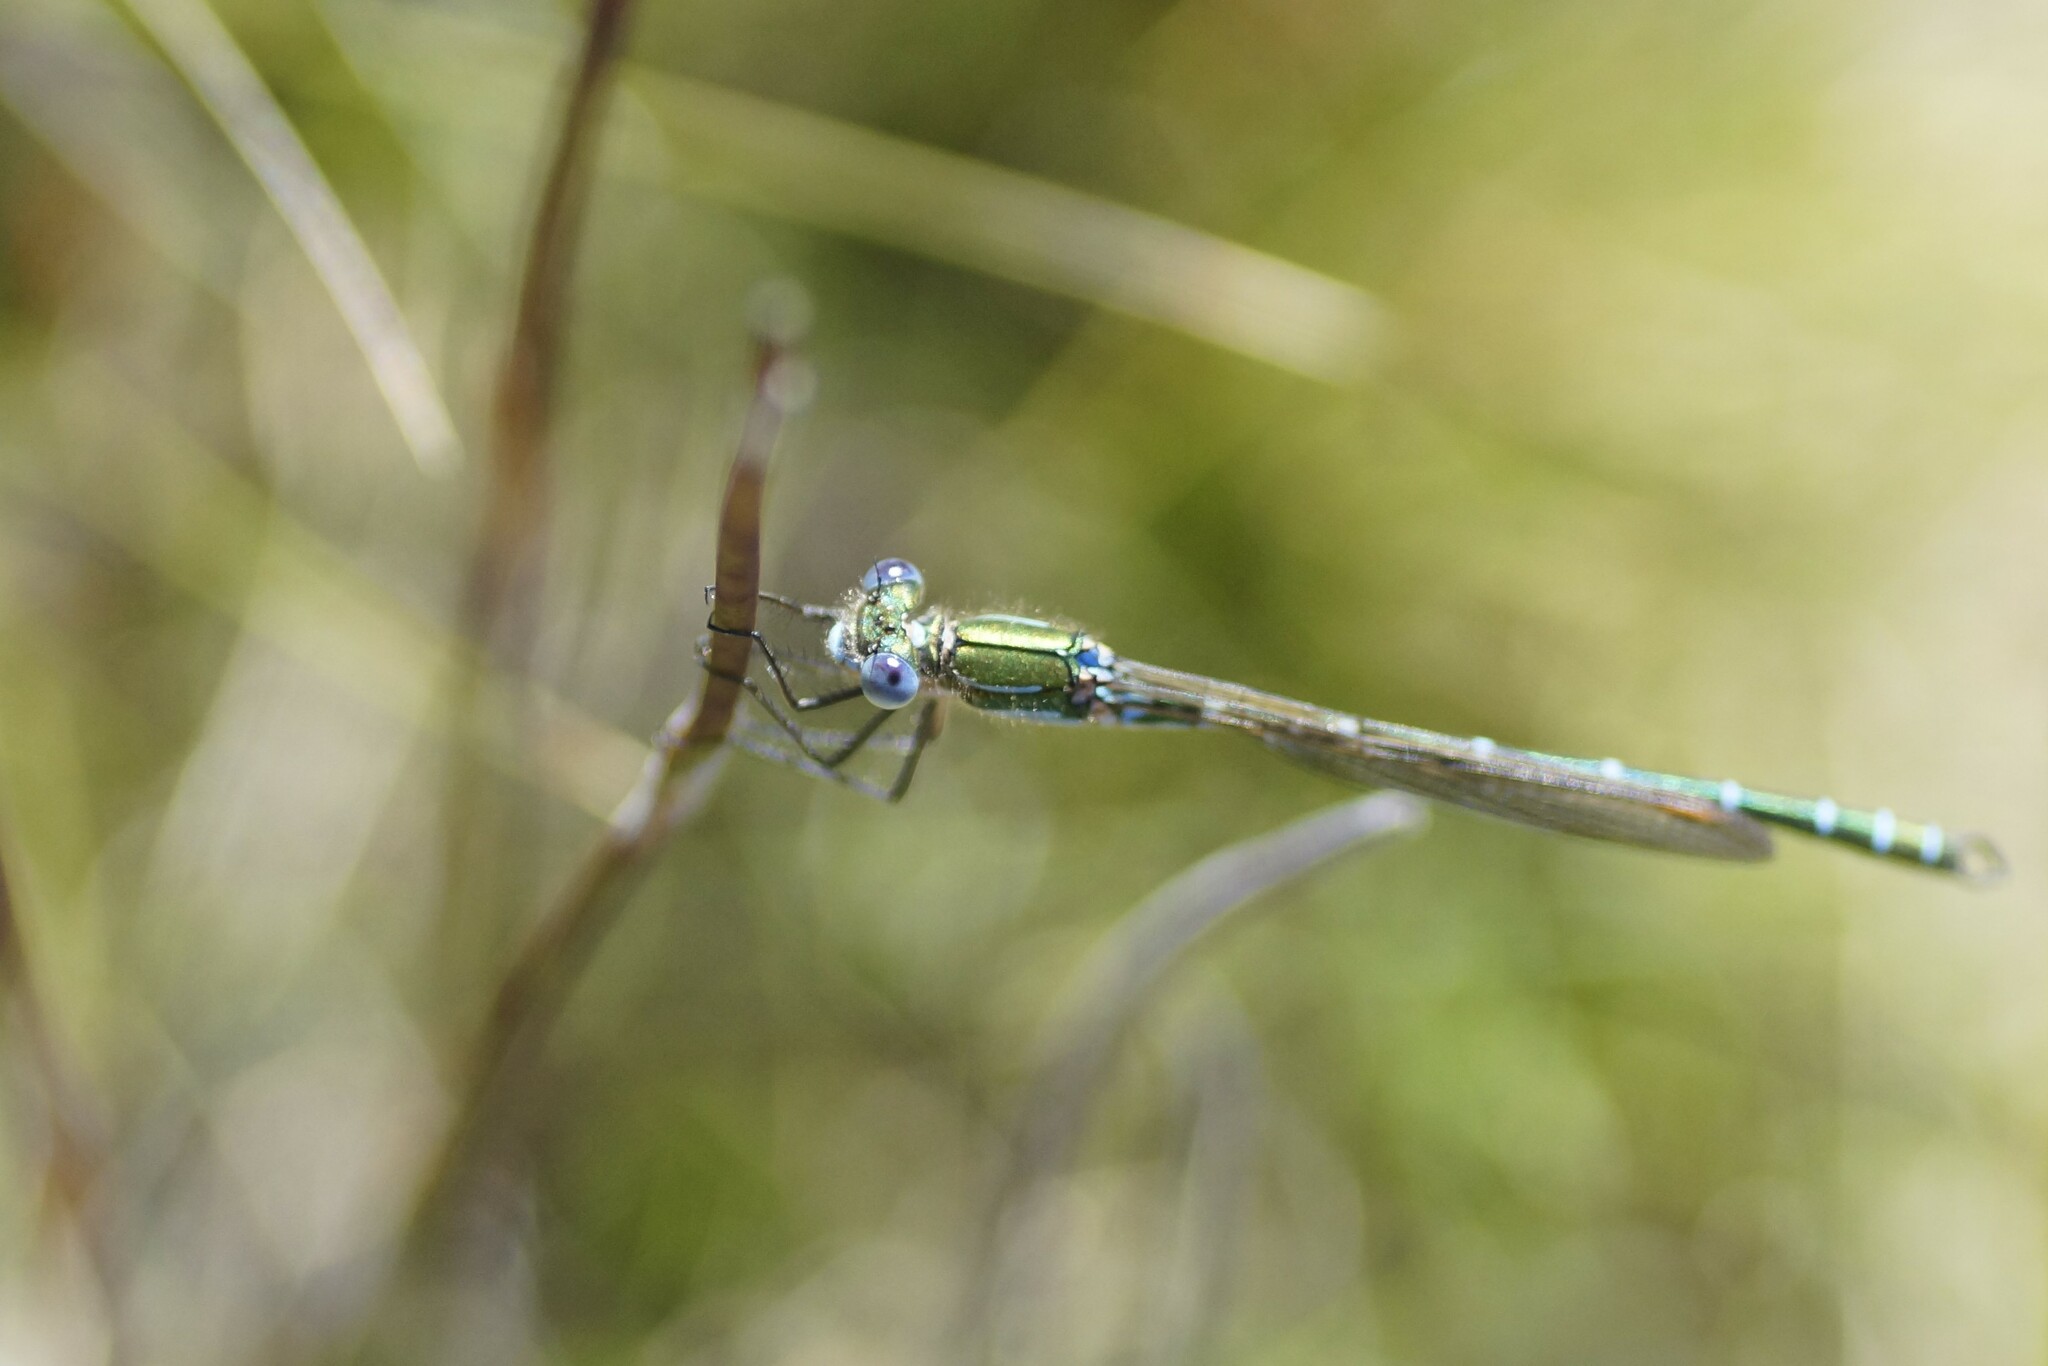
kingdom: Animalia
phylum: Arthropoda
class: Insecta
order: Odonata
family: Lestidae
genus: Austrolestes
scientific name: Austrolestes cingulatus
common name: Metallic ringtail
